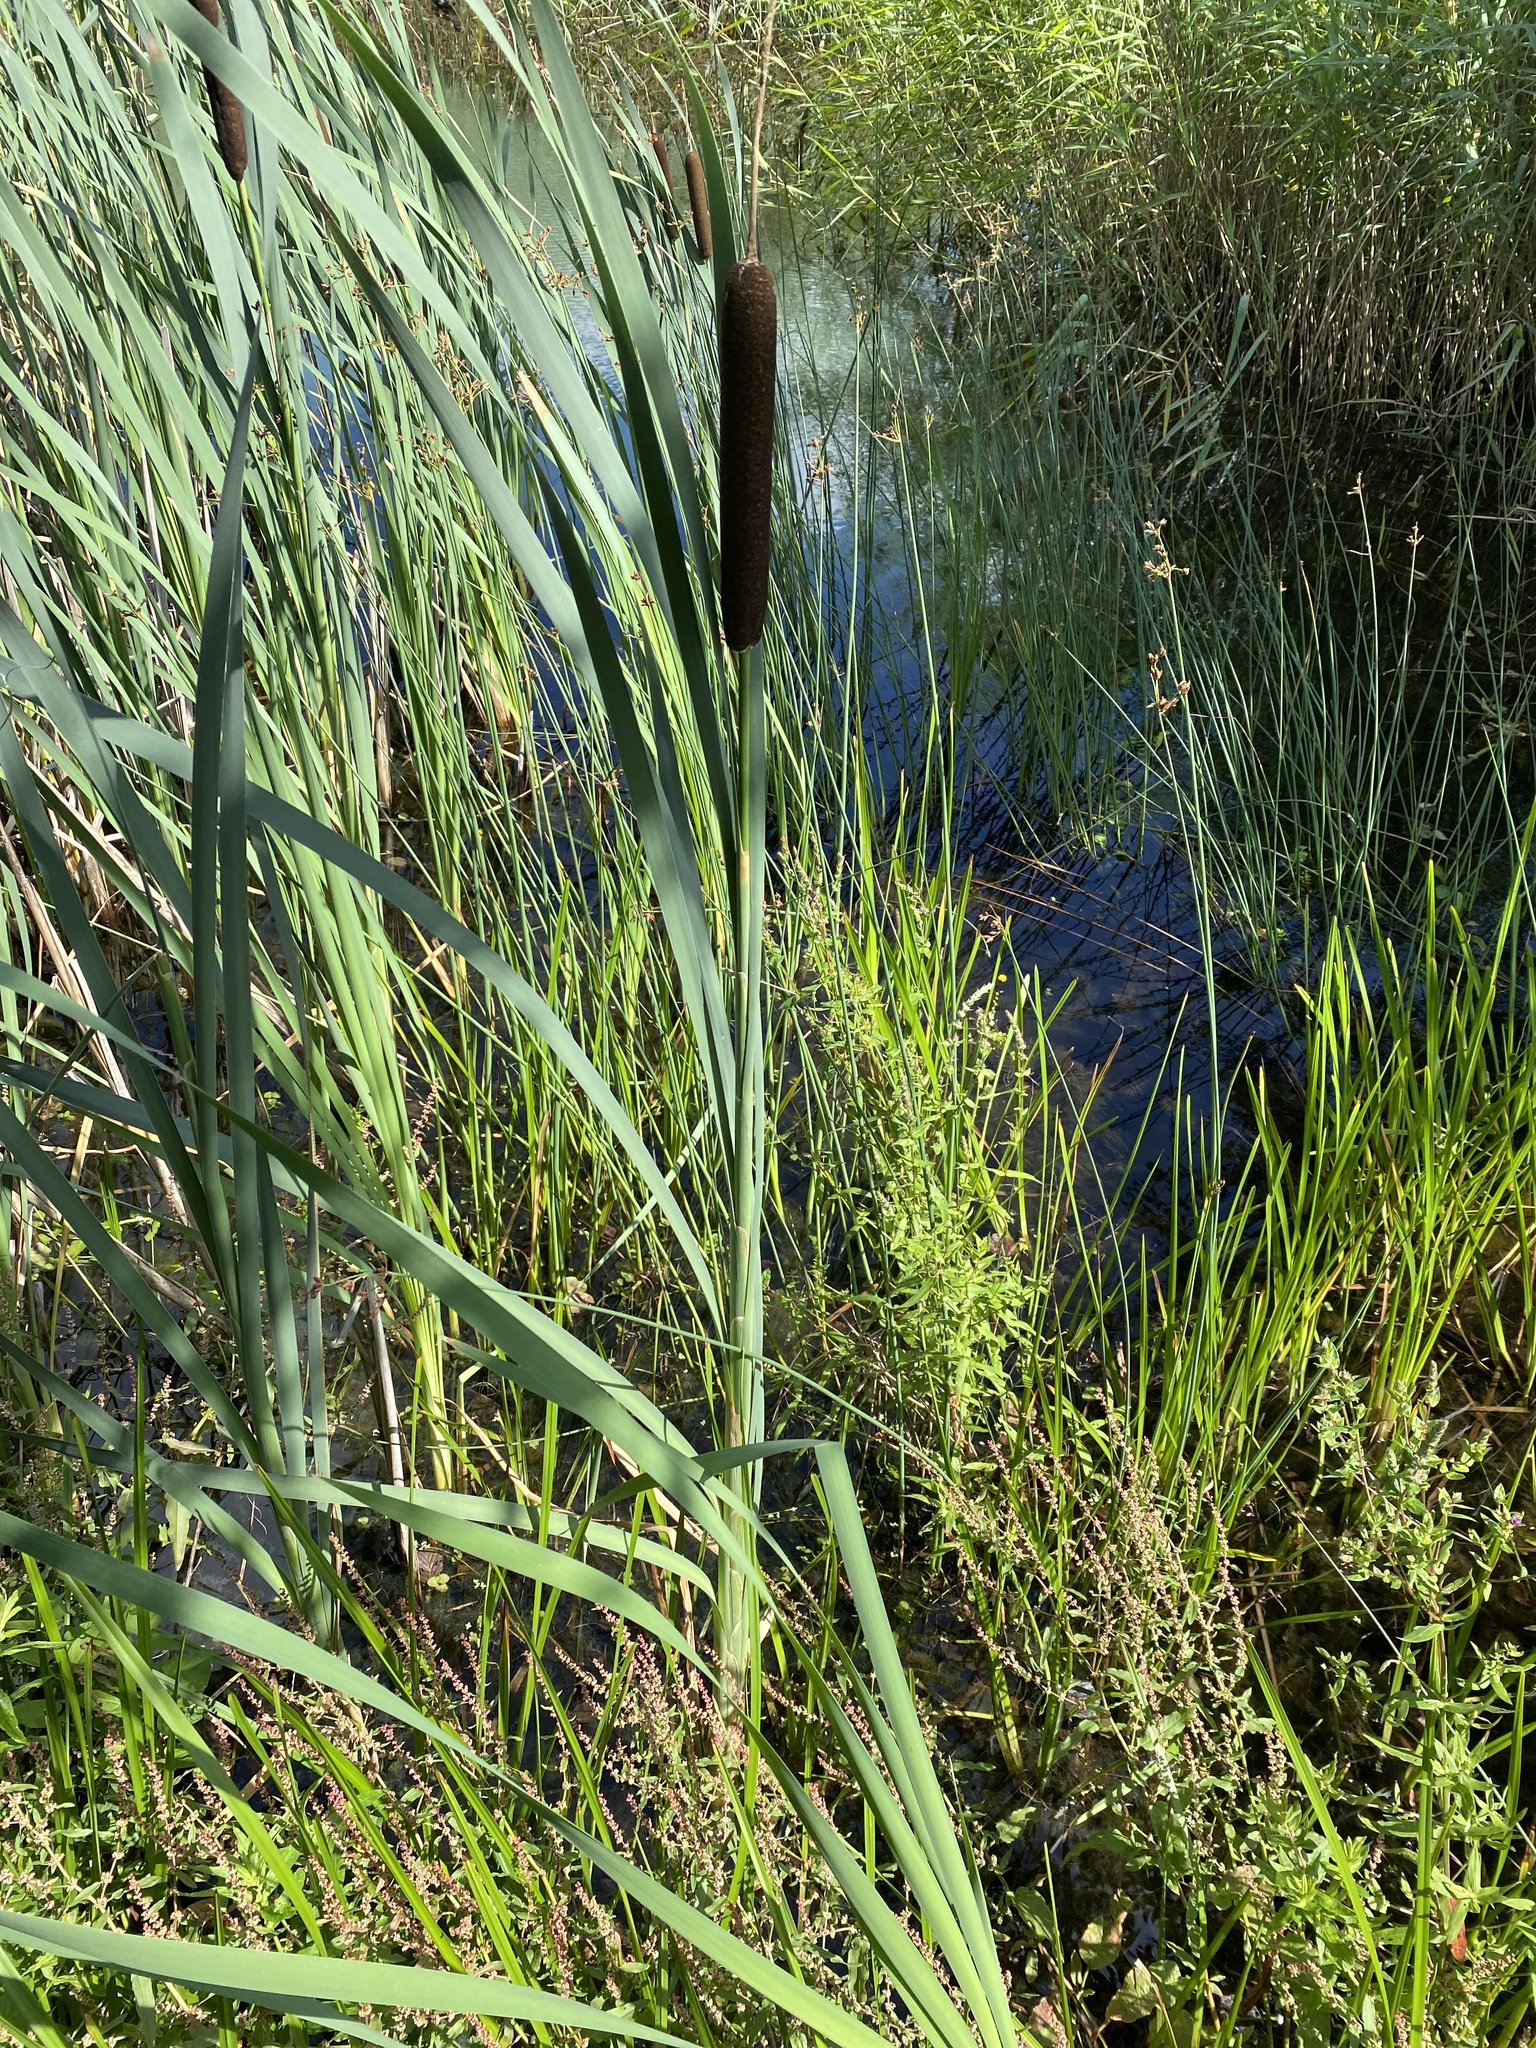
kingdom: Plantae
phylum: Tracheophyta
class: Liliopsida
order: Poales
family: Typhaceae
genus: Typha
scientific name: Typha latifolia
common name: Broadleaf cattail
